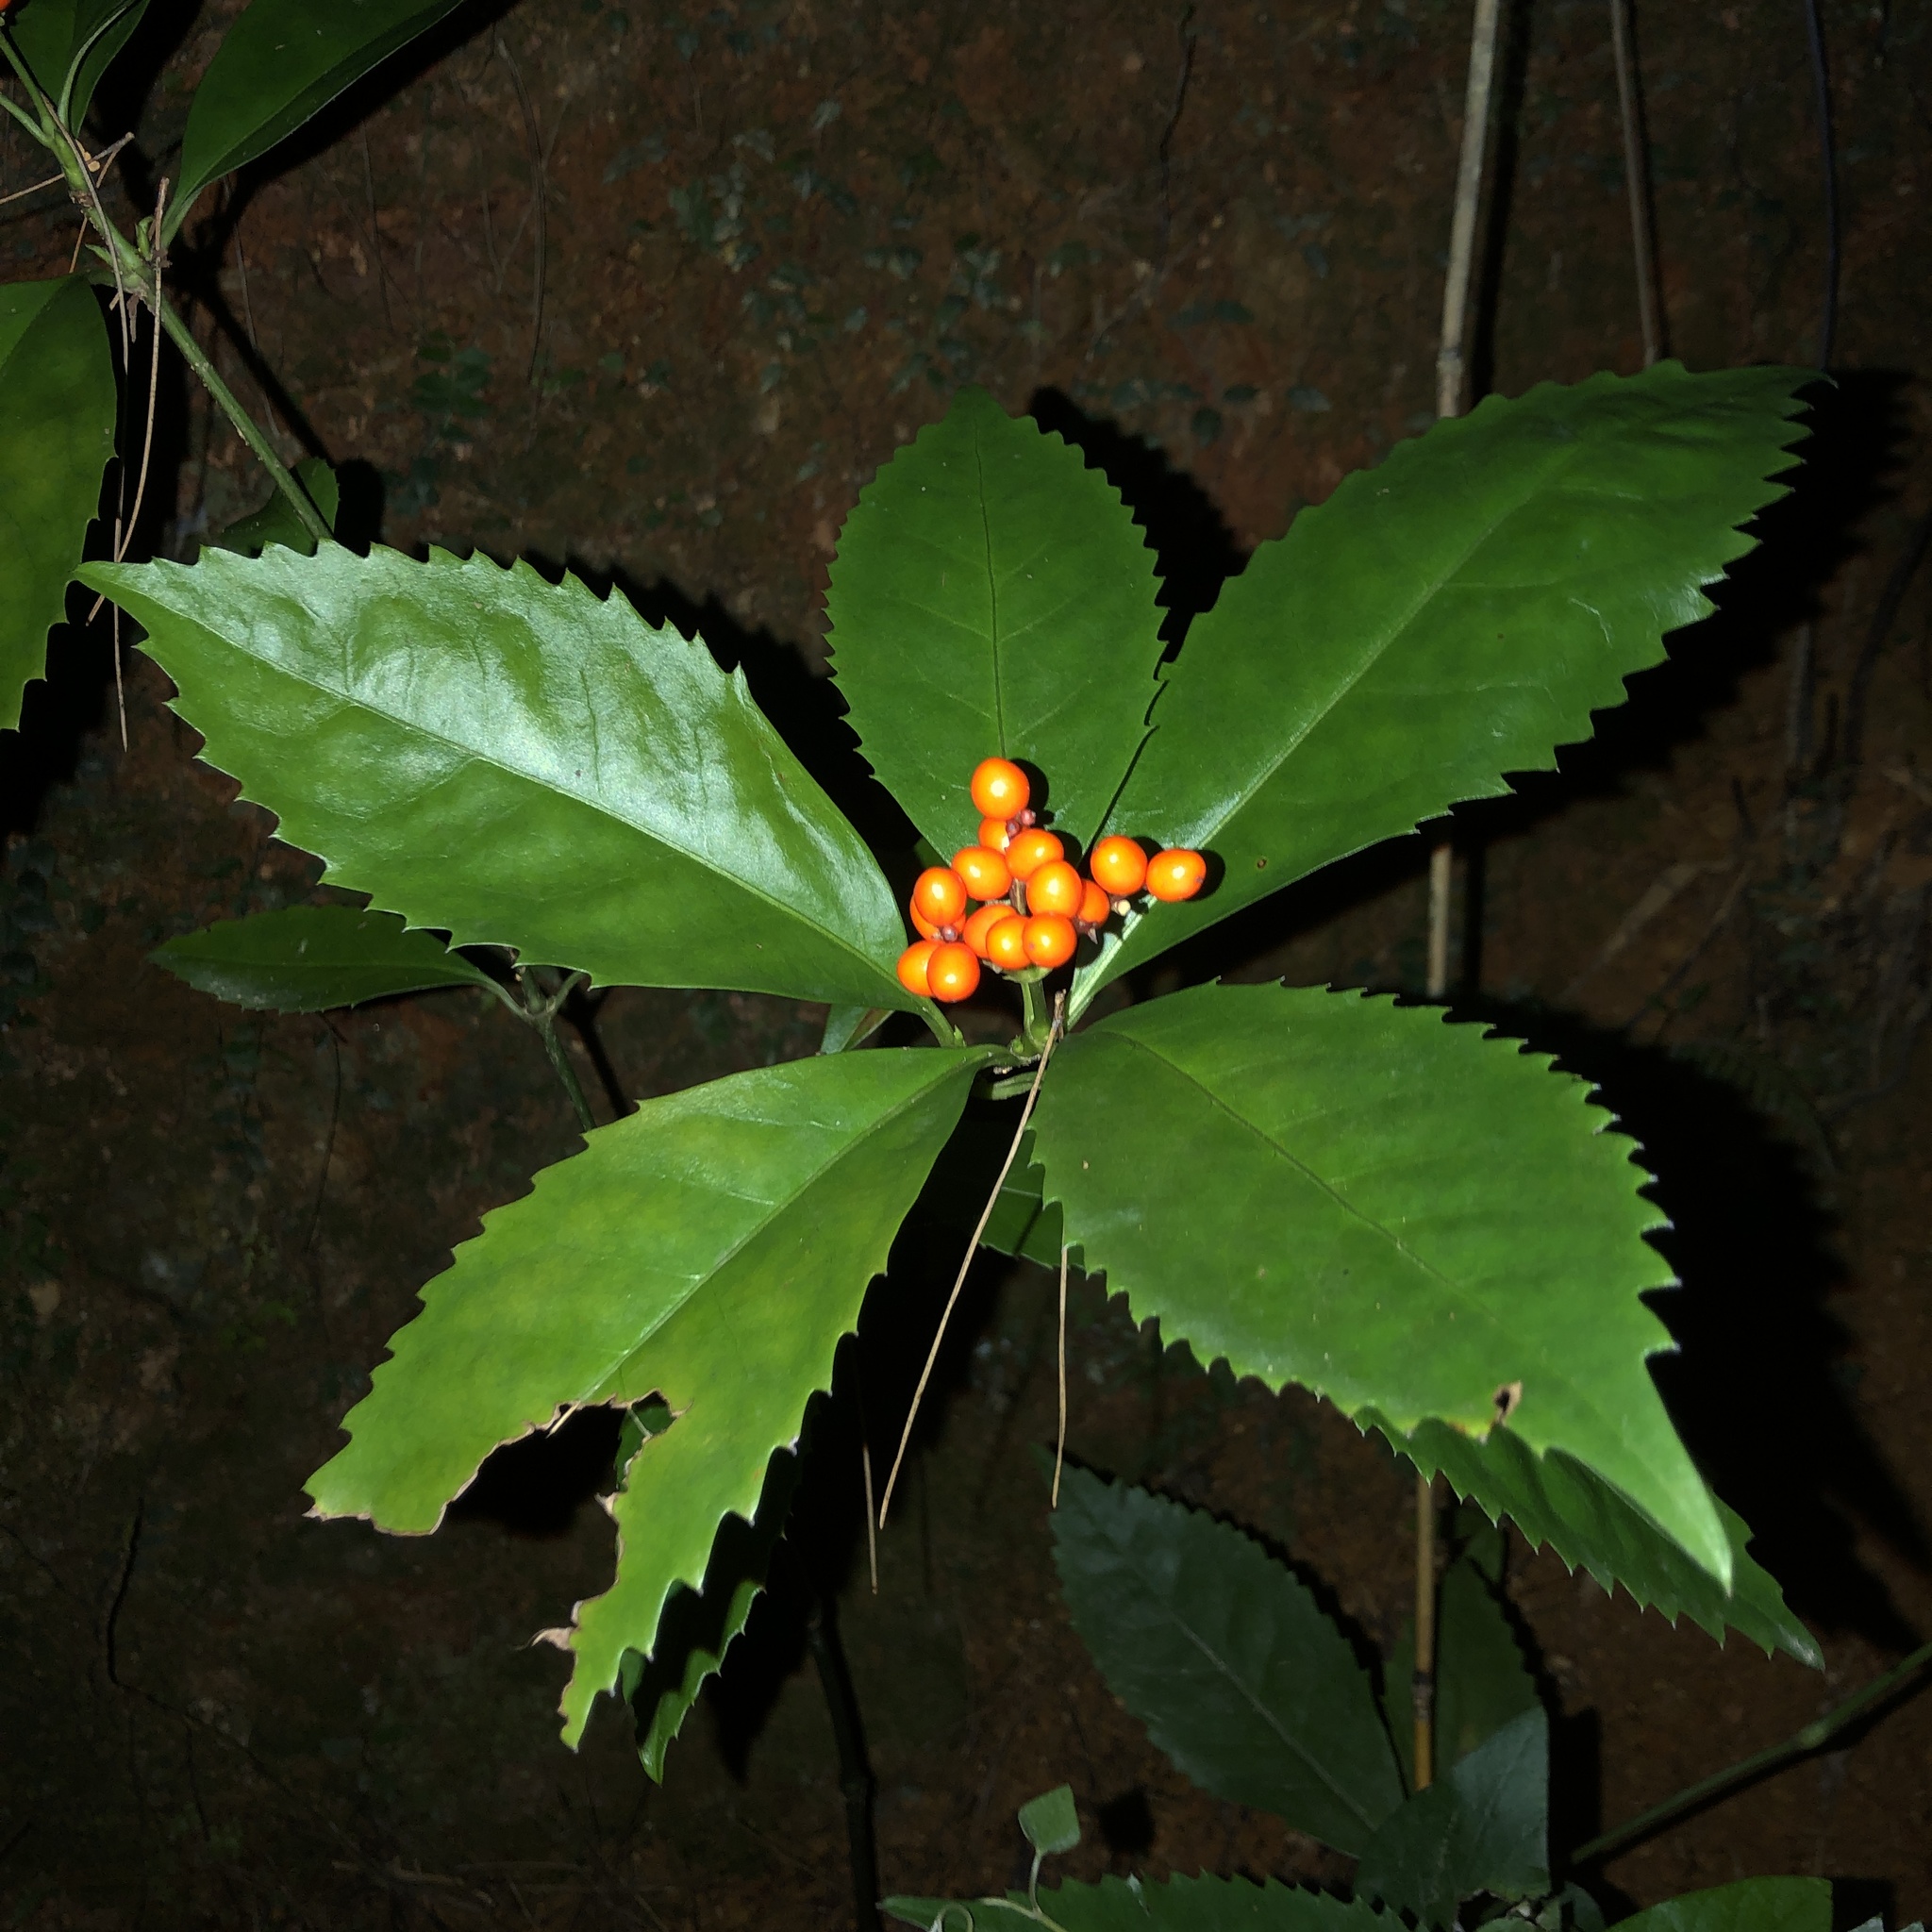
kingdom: Plantae
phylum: Tracheophyta
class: Magnoliopsida
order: Chloranthales
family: Chloranthaceae
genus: Sarcandra
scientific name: Sarcandra glabra
